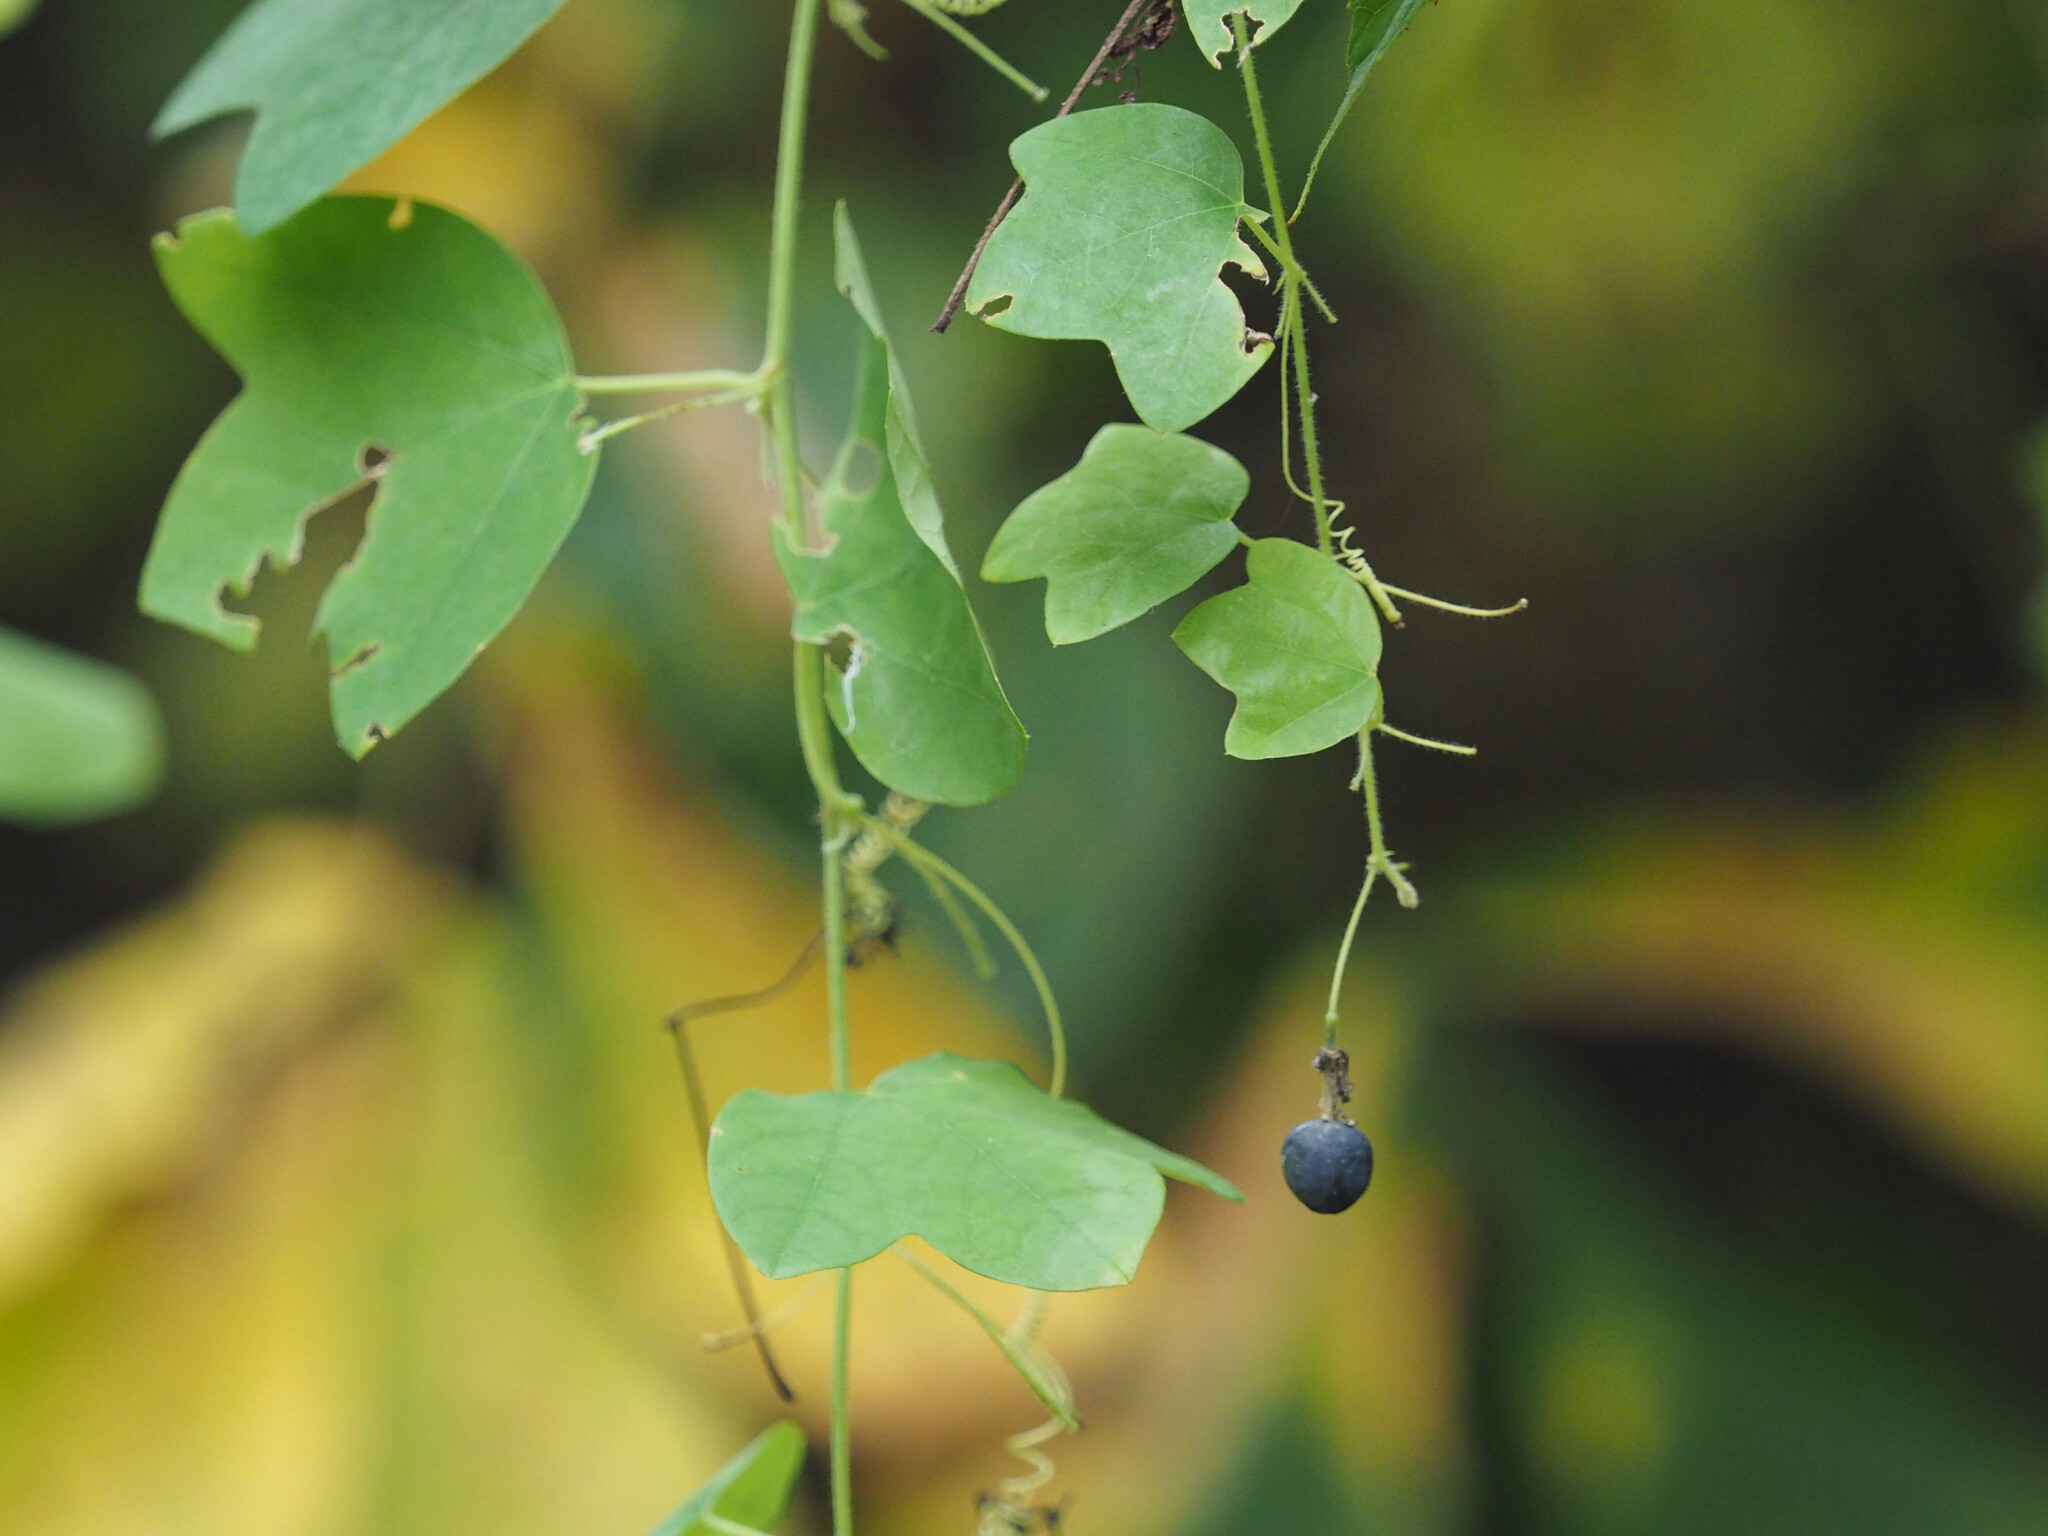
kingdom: Plantae
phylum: Tracheophyta
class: Magnoliopsida
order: Malpighiales
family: Passifloraceae
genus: Passiflora
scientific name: Passiflora lutea
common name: Yellow passionflower
